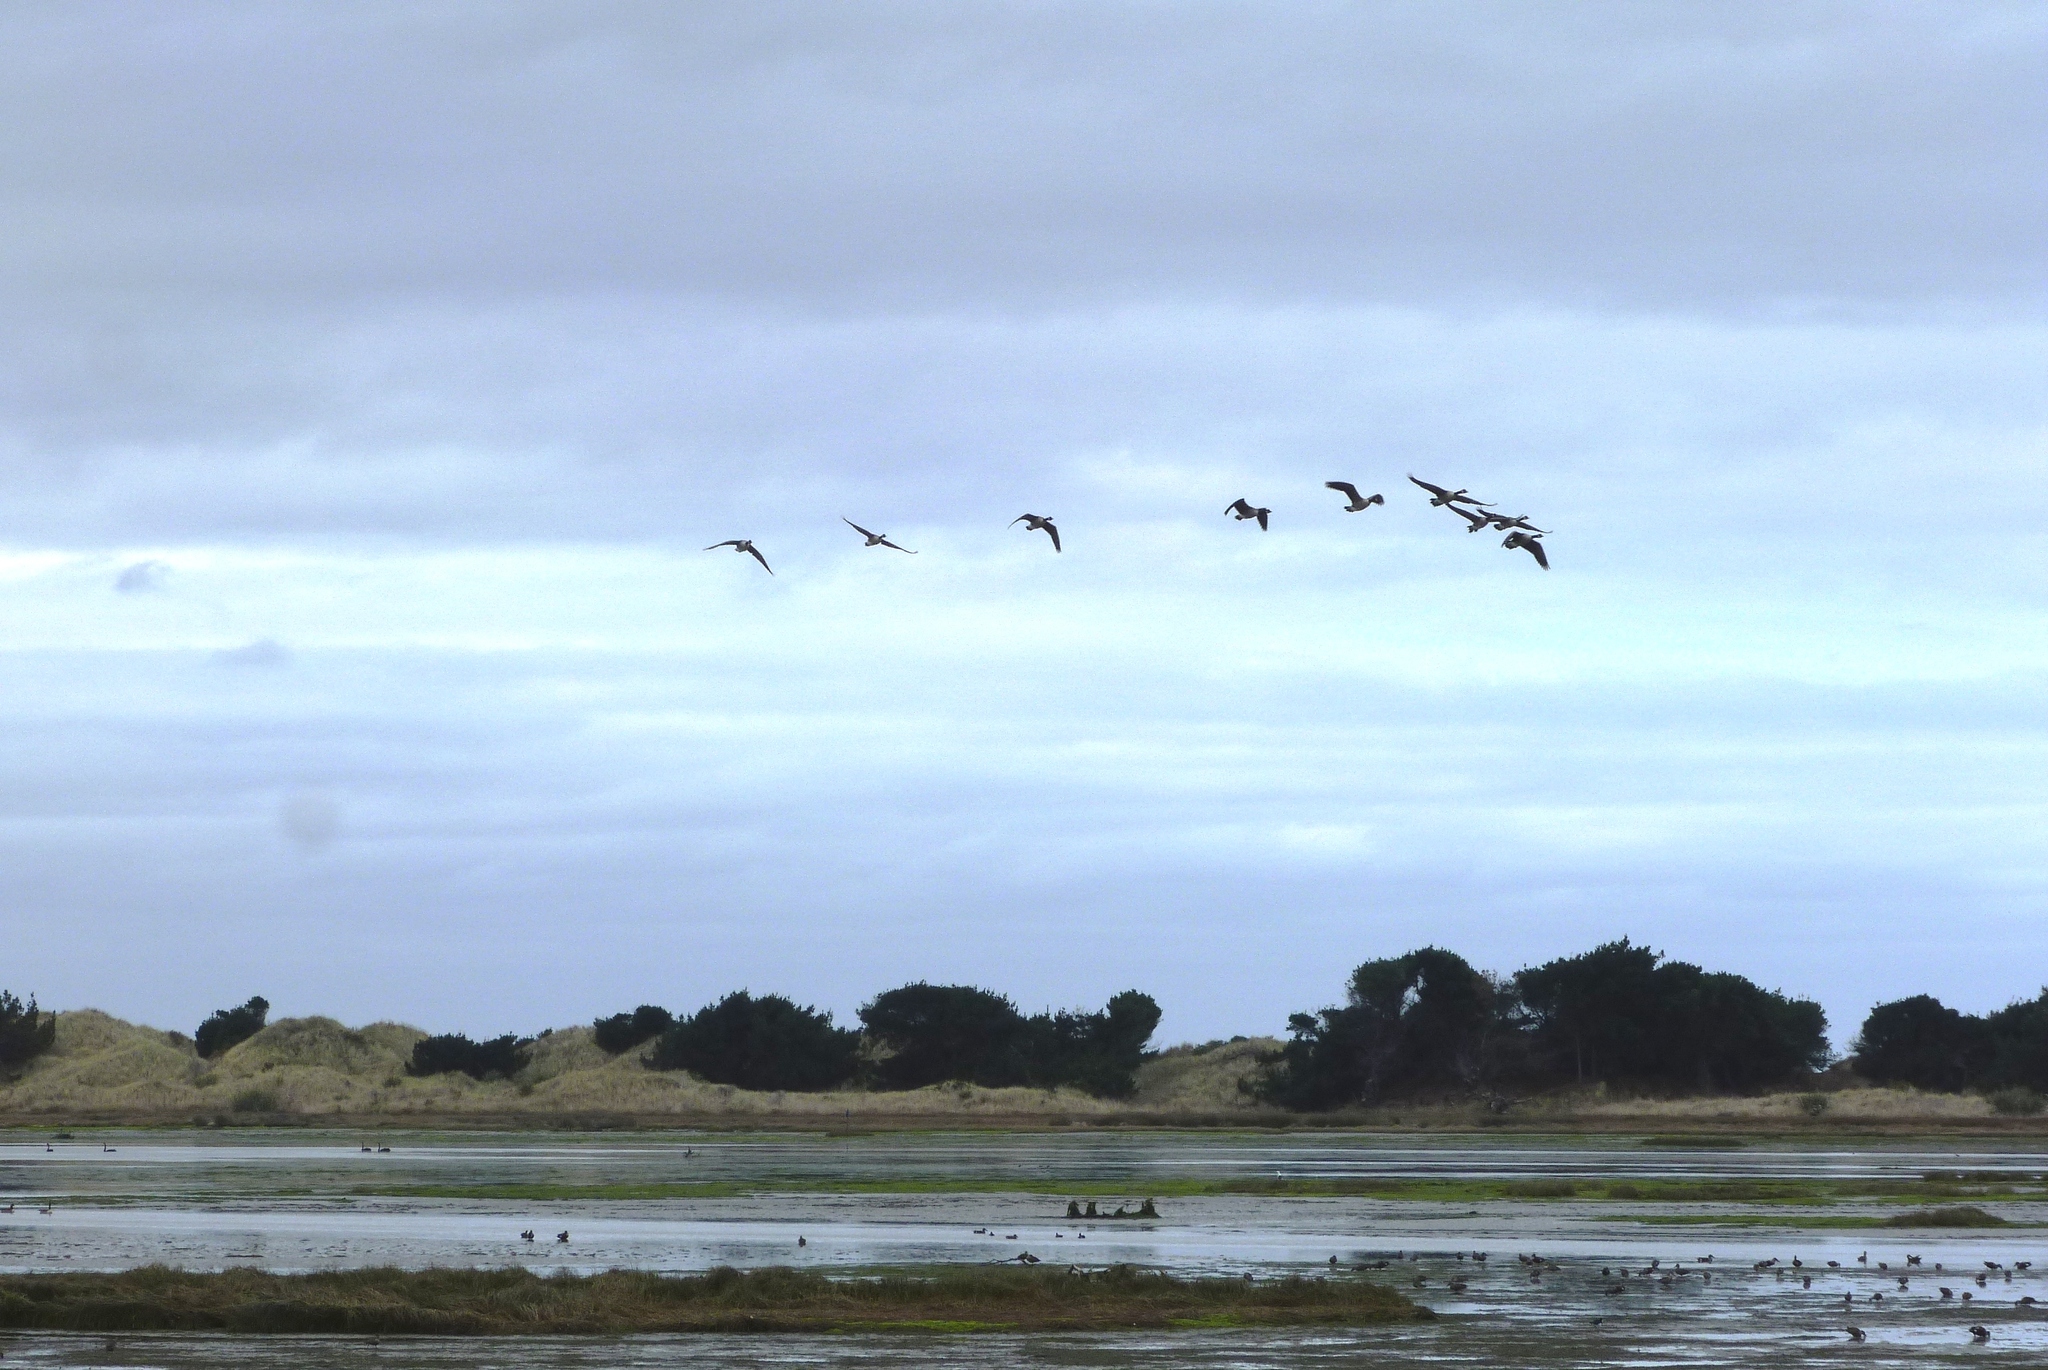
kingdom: Animalia
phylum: Chordata
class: Aves
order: Anseriformes
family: Anatidae
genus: Branta
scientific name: Branta canadensis
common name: Canada goose
